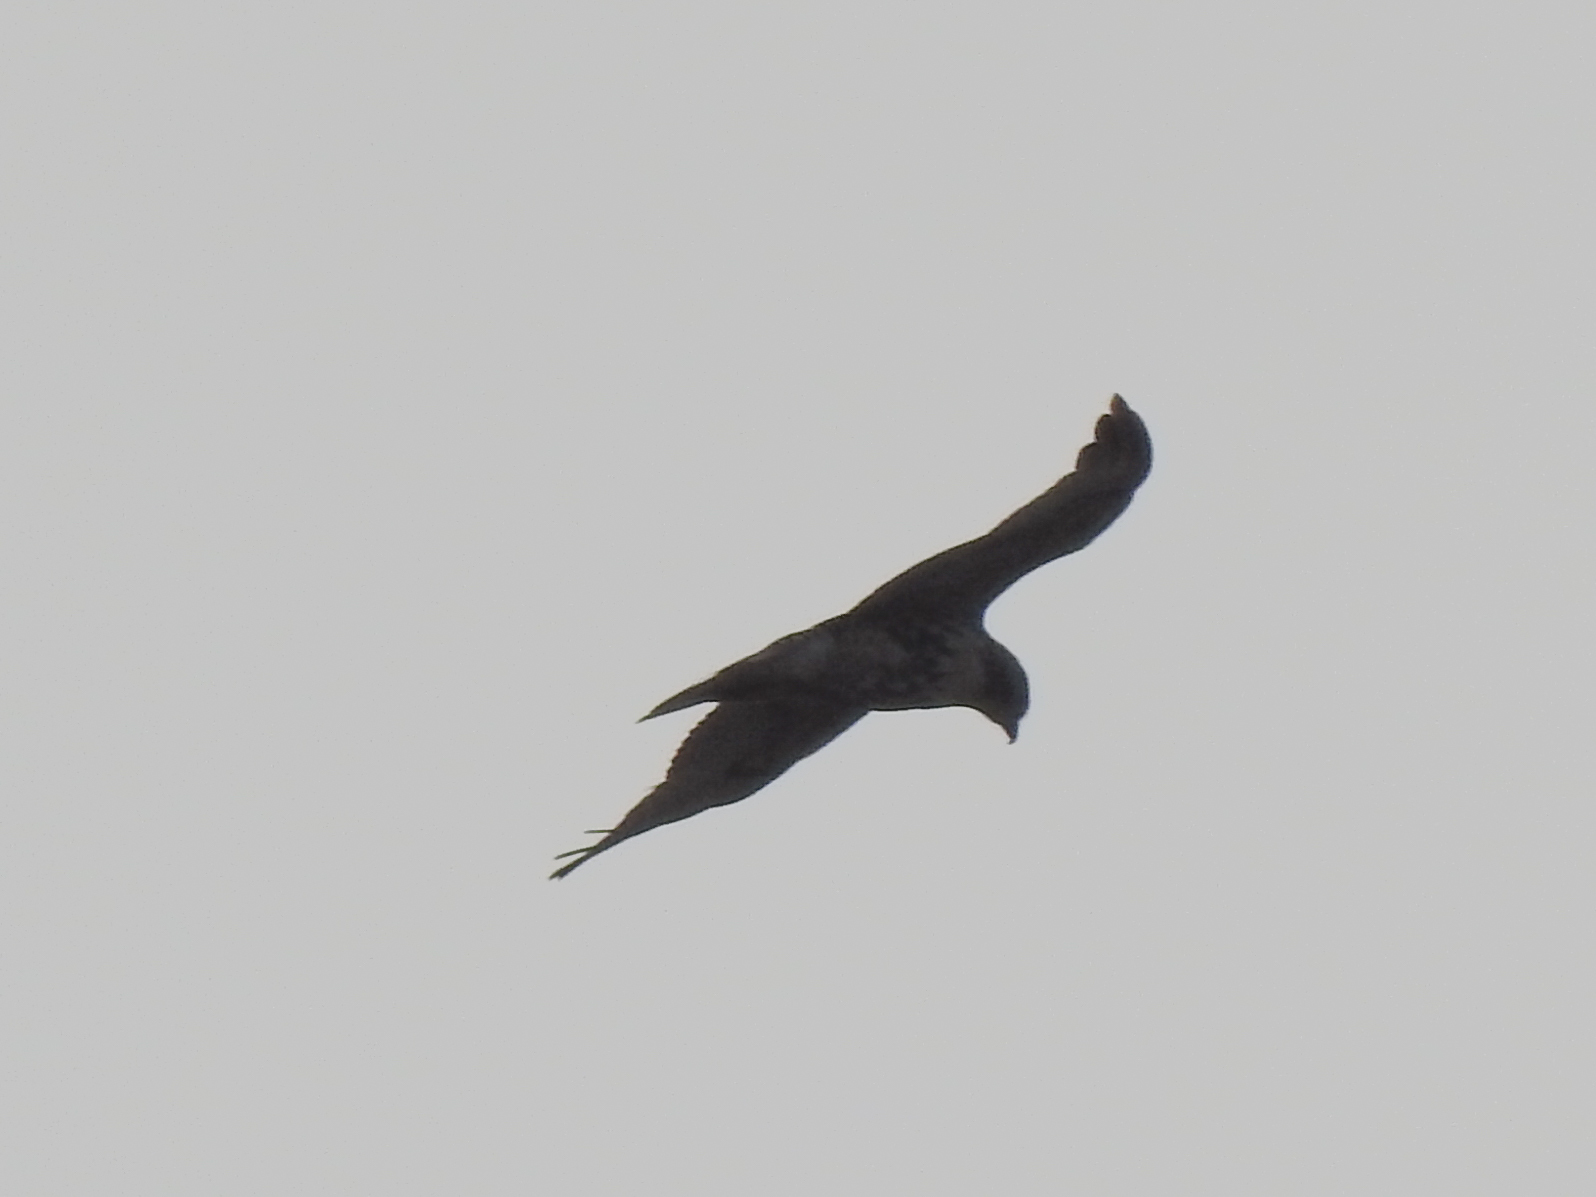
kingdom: Animalia
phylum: Chordata
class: Aves
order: Accipitriformes
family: Accipitridae
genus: Buteo
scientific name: Buteo jamaicensis
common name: Red-tailed hawk
